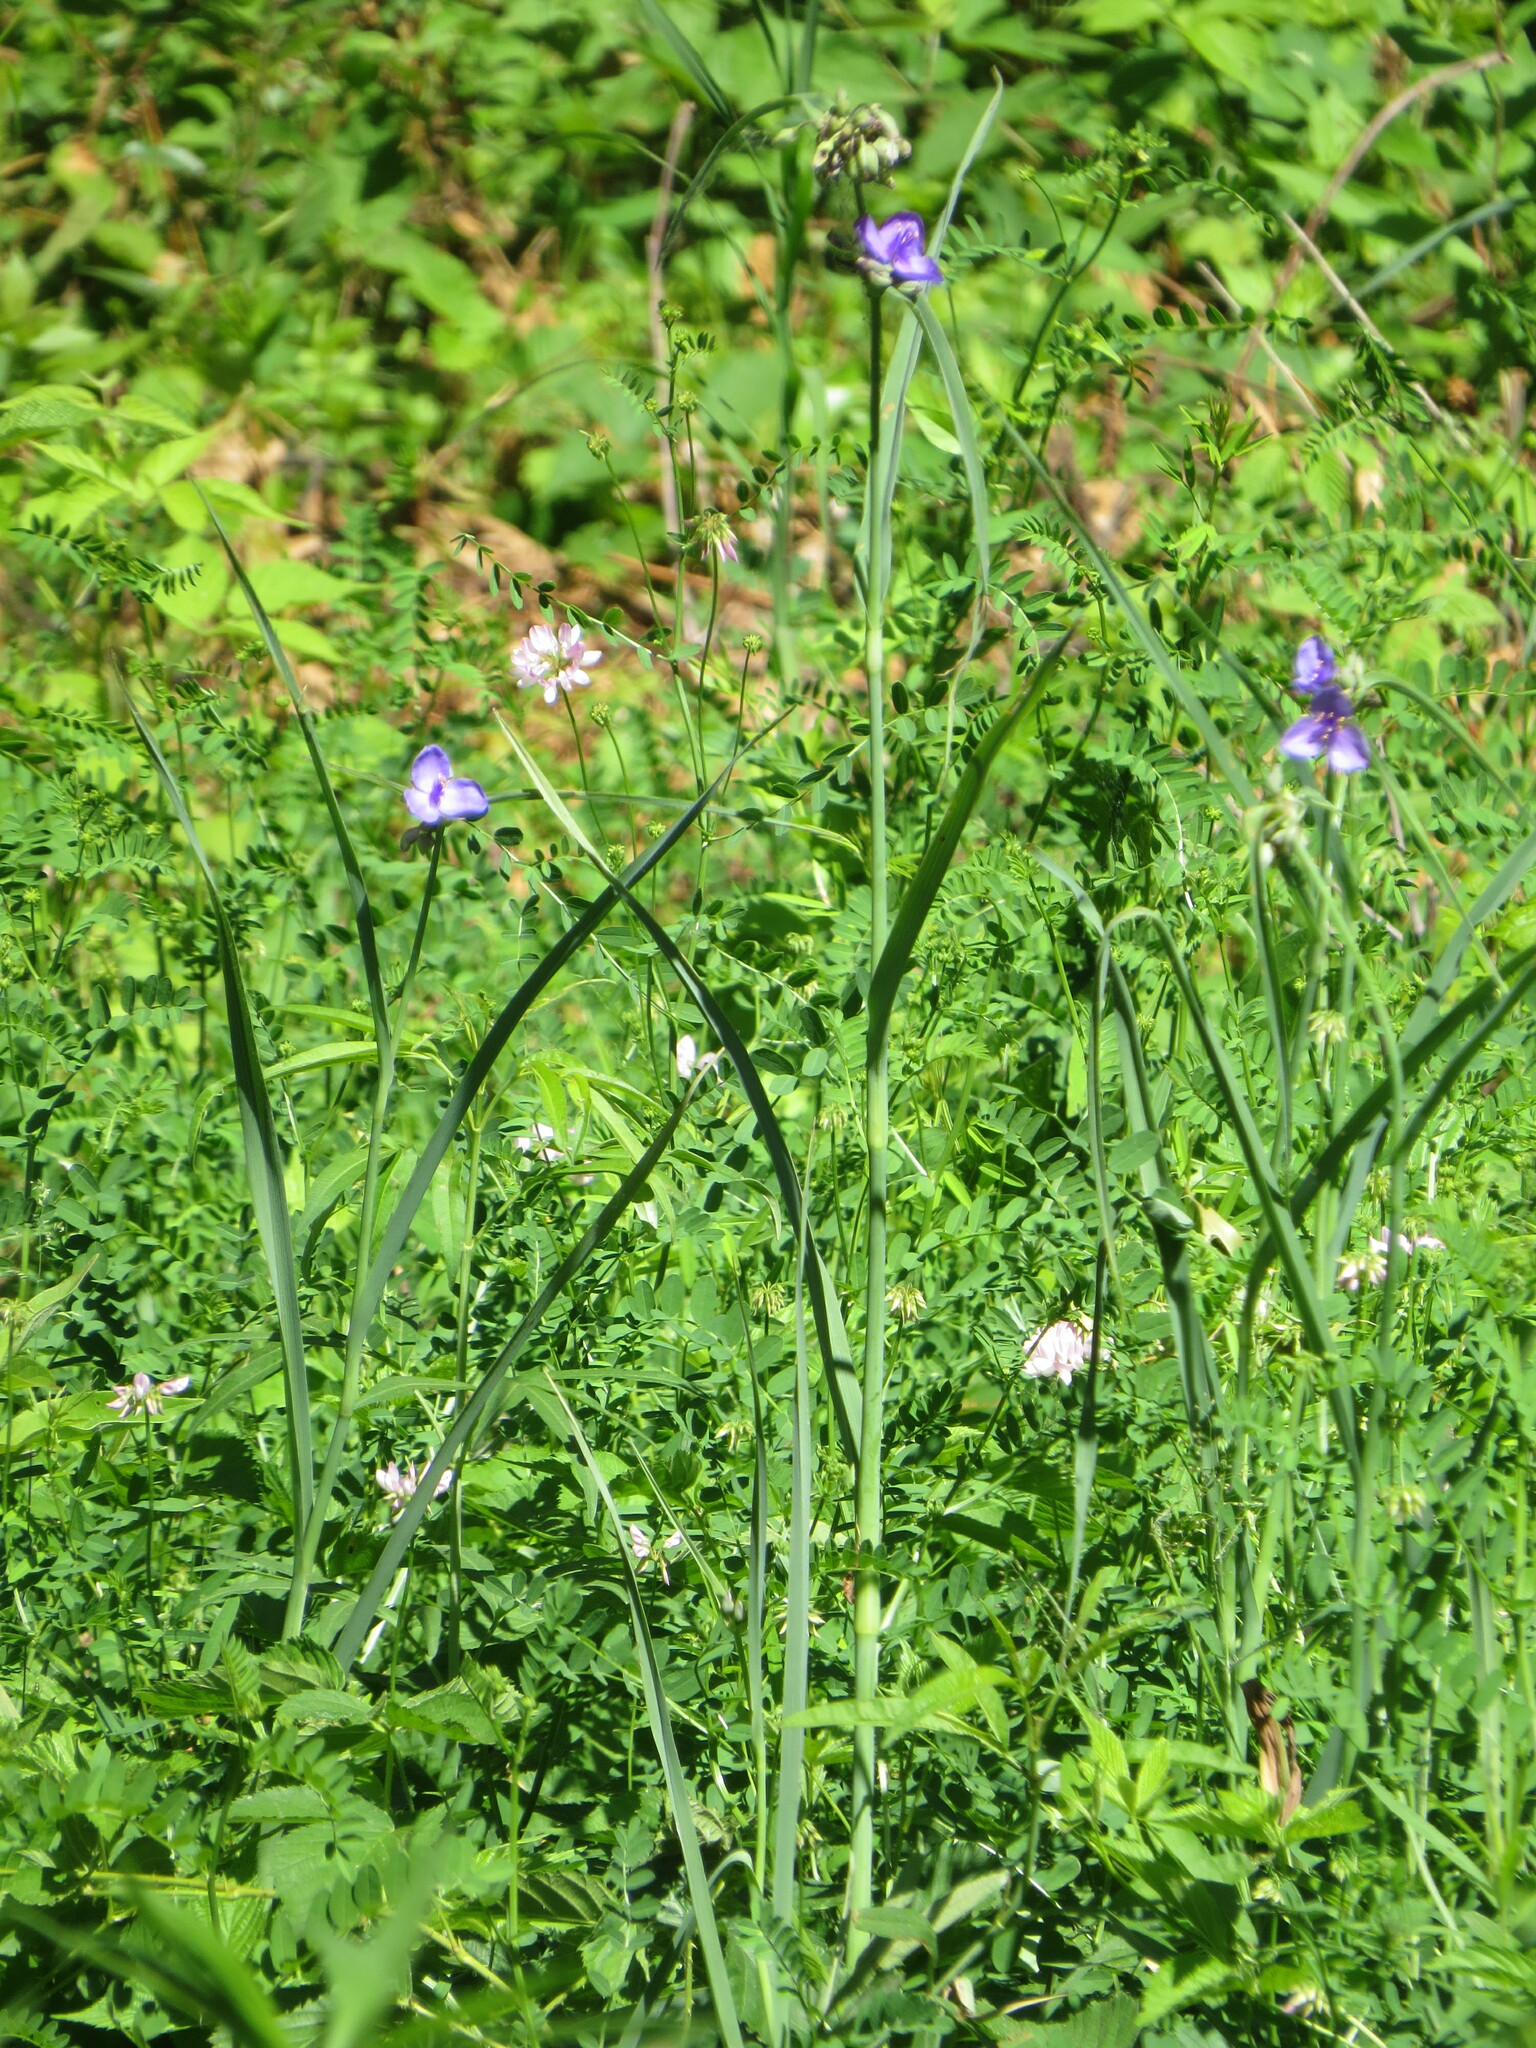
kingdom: Plantae
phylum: Tracheophyta
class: Liliopsida
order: Commelinales
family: Commelinaceae
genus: Tradescantia
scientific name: Tradescantia ohiensis
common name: Ohio spiderwort
